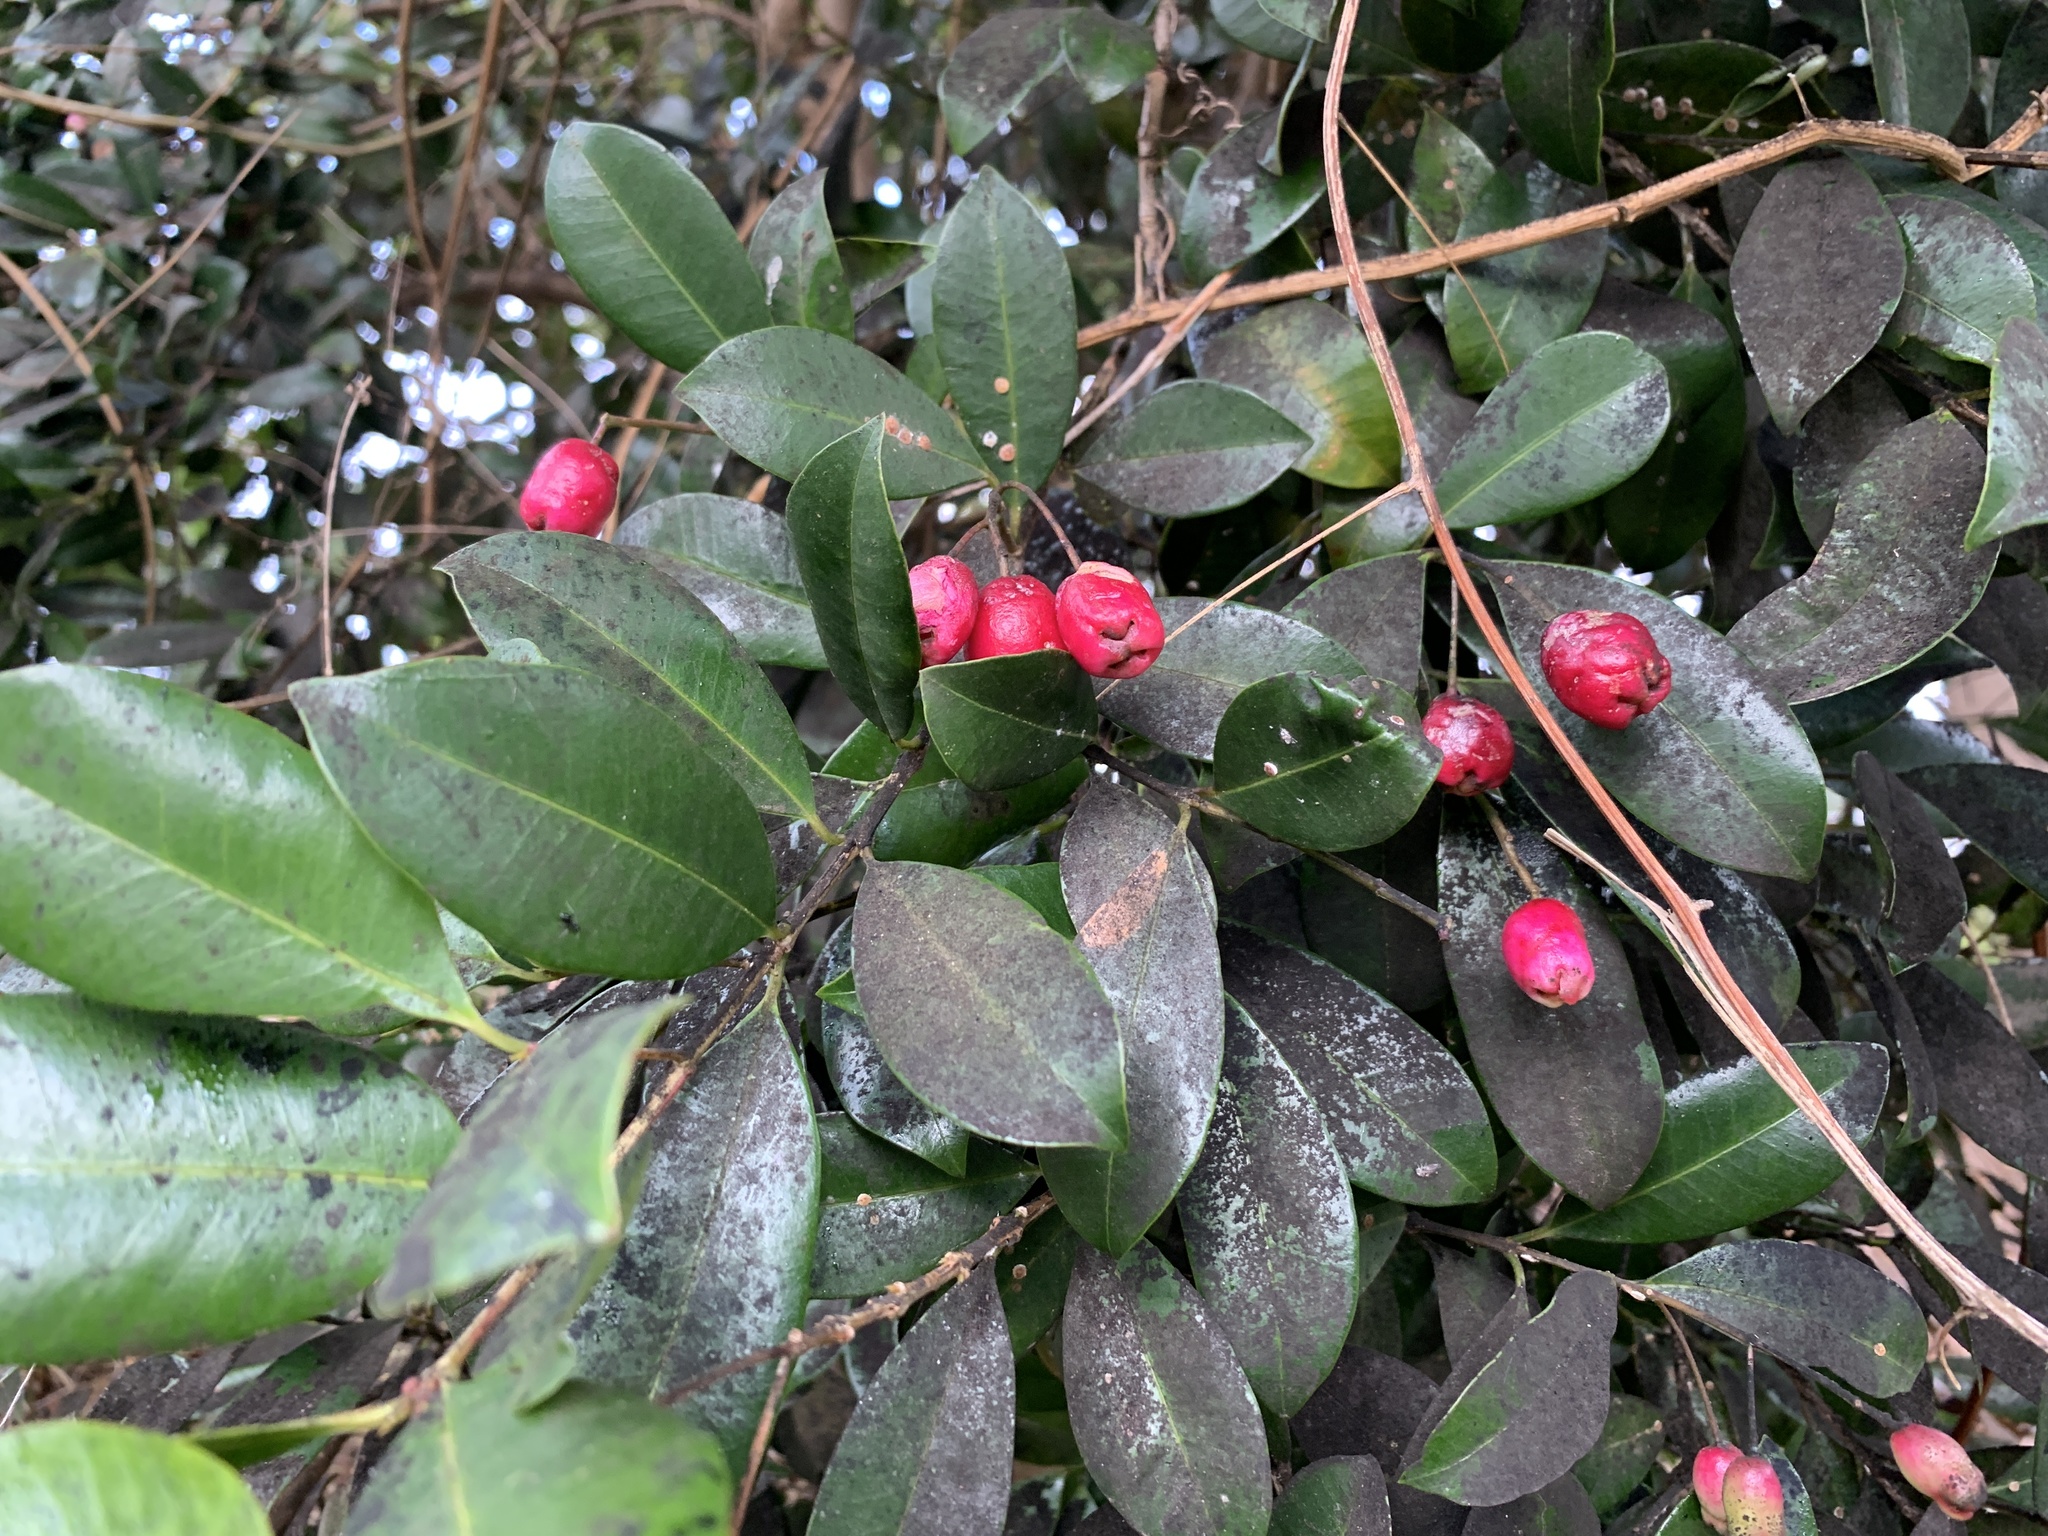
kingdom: Plantae
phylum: Tracheophyta
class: Magnoliopsida
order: Myrtales
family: Myrtaceae
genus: Syzygium
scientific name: Syzygium australe
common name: Australian brush-cherry
